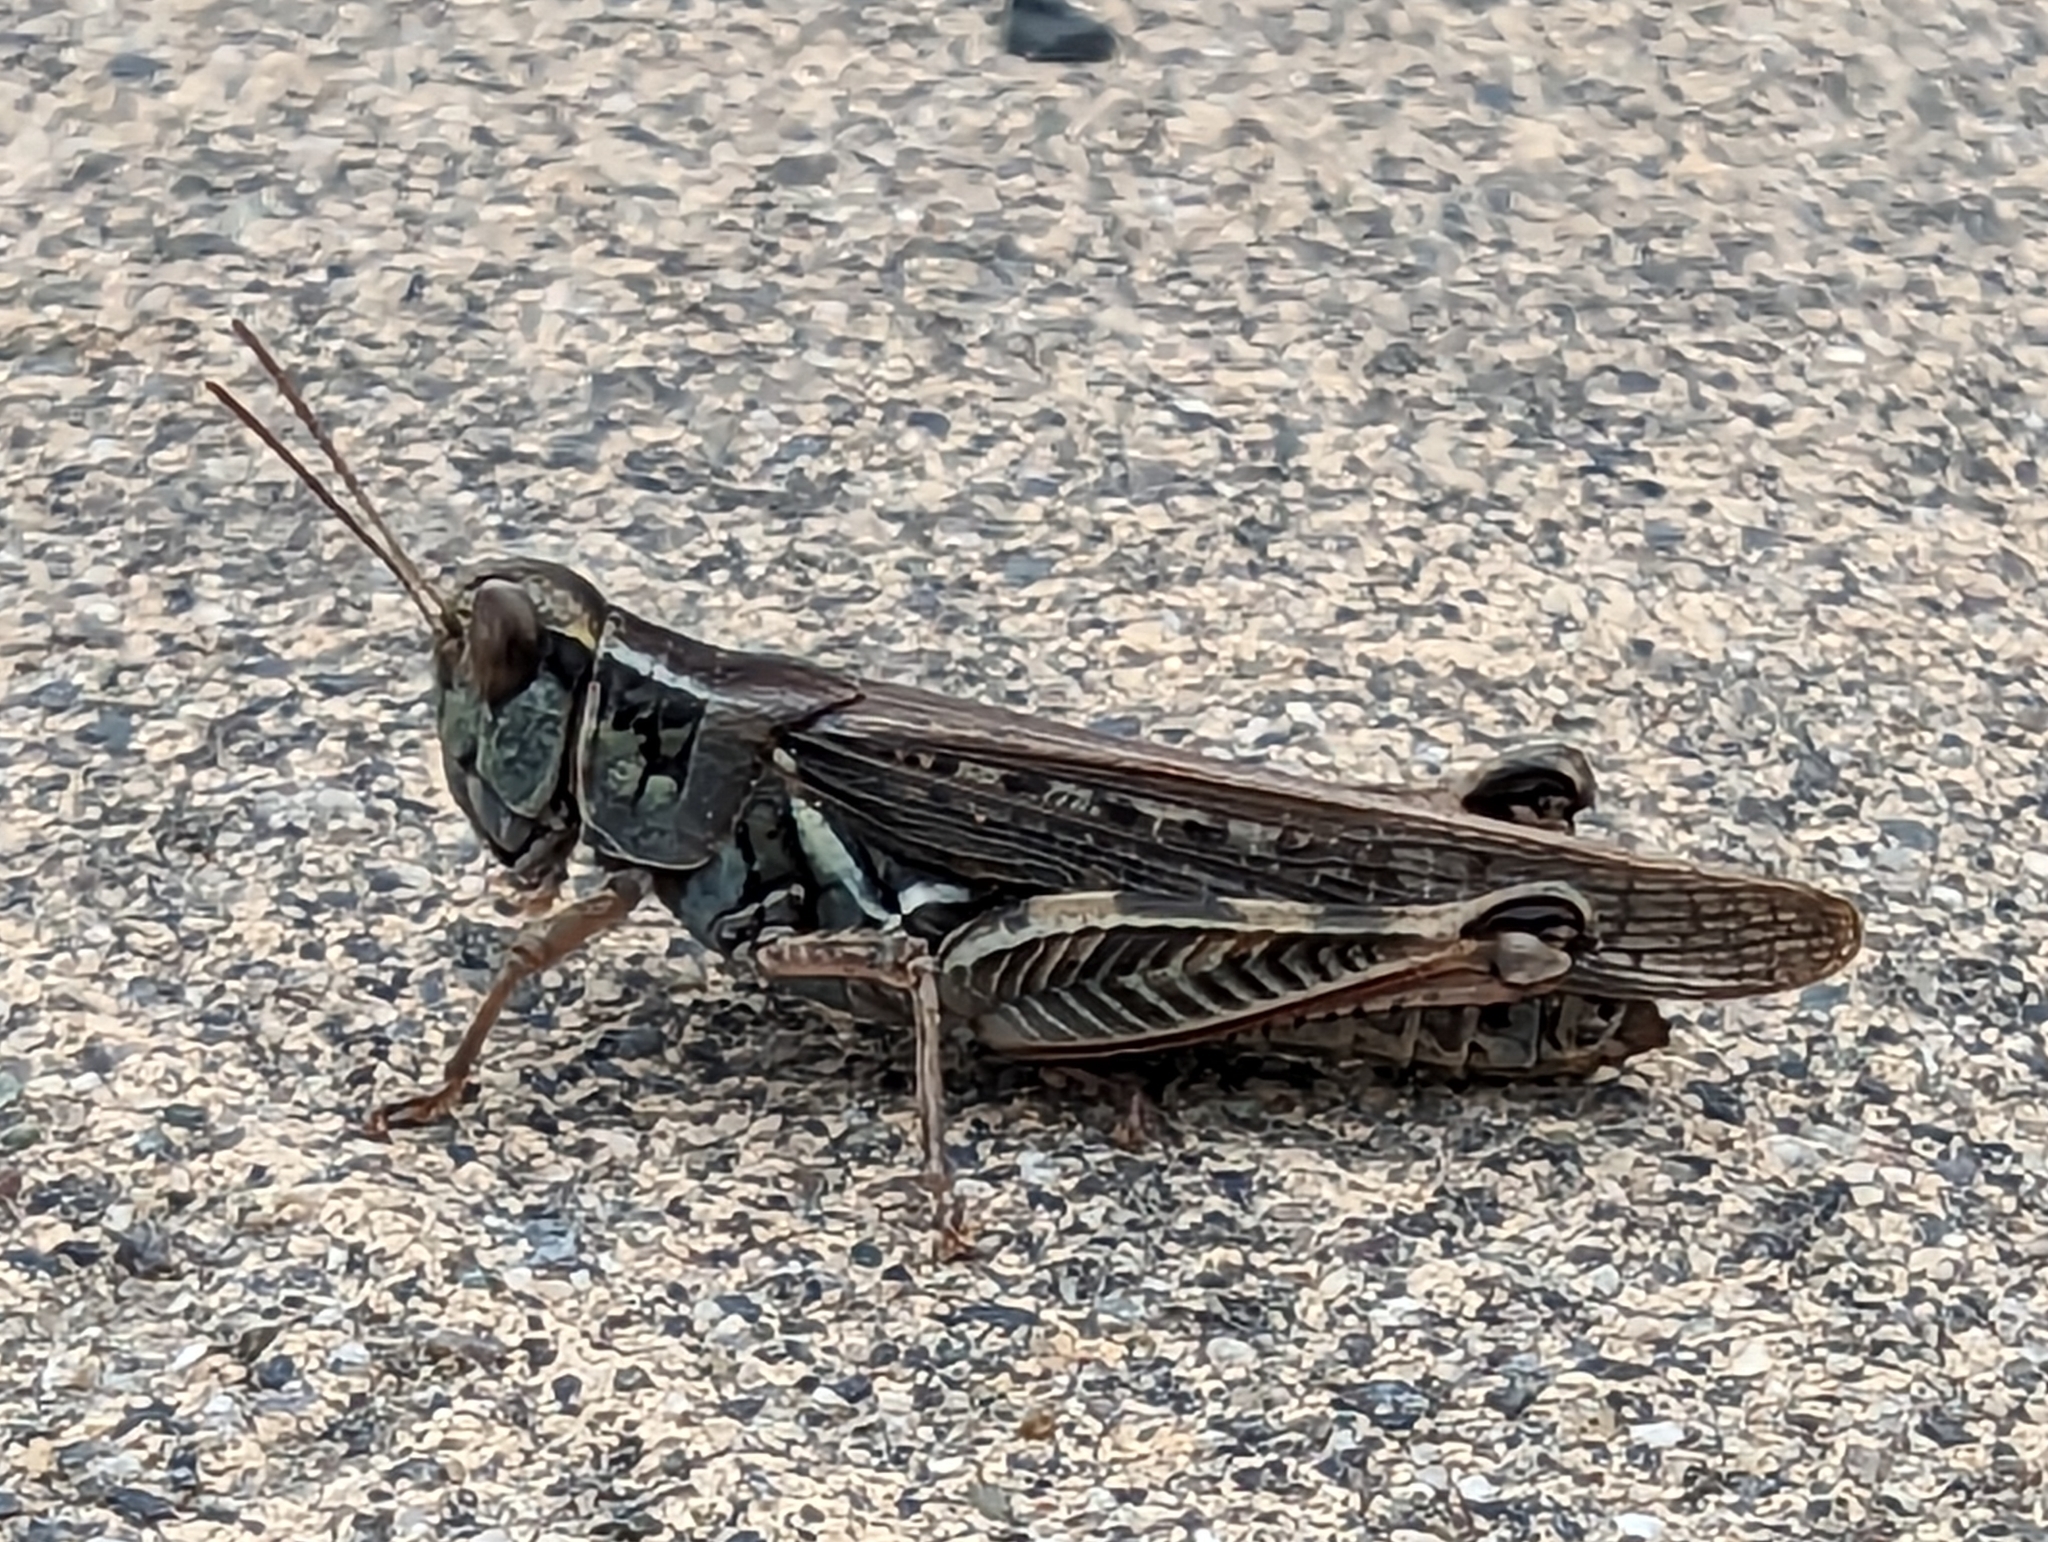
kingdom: Animalia
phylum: Arthropoda
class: Insecta
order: Orthoptera
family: Acrididae
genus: Melanoplus
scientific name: Melanoplus sanguinipes
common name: Migratory grasshopper
